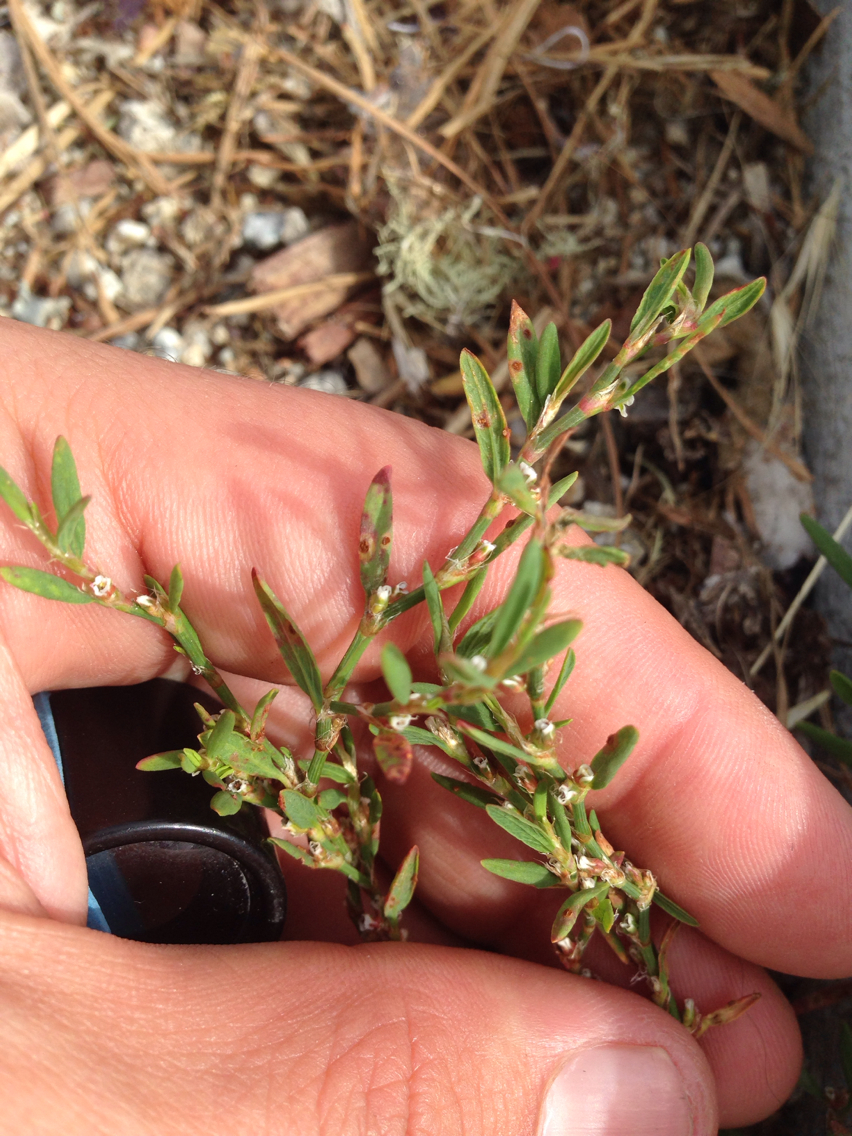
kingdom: Plantae
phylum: Tracheophyta
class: Magnoliopsida
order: Caryophyllales
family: Polygonaceae
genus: Polygonum
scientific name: Polygonum
